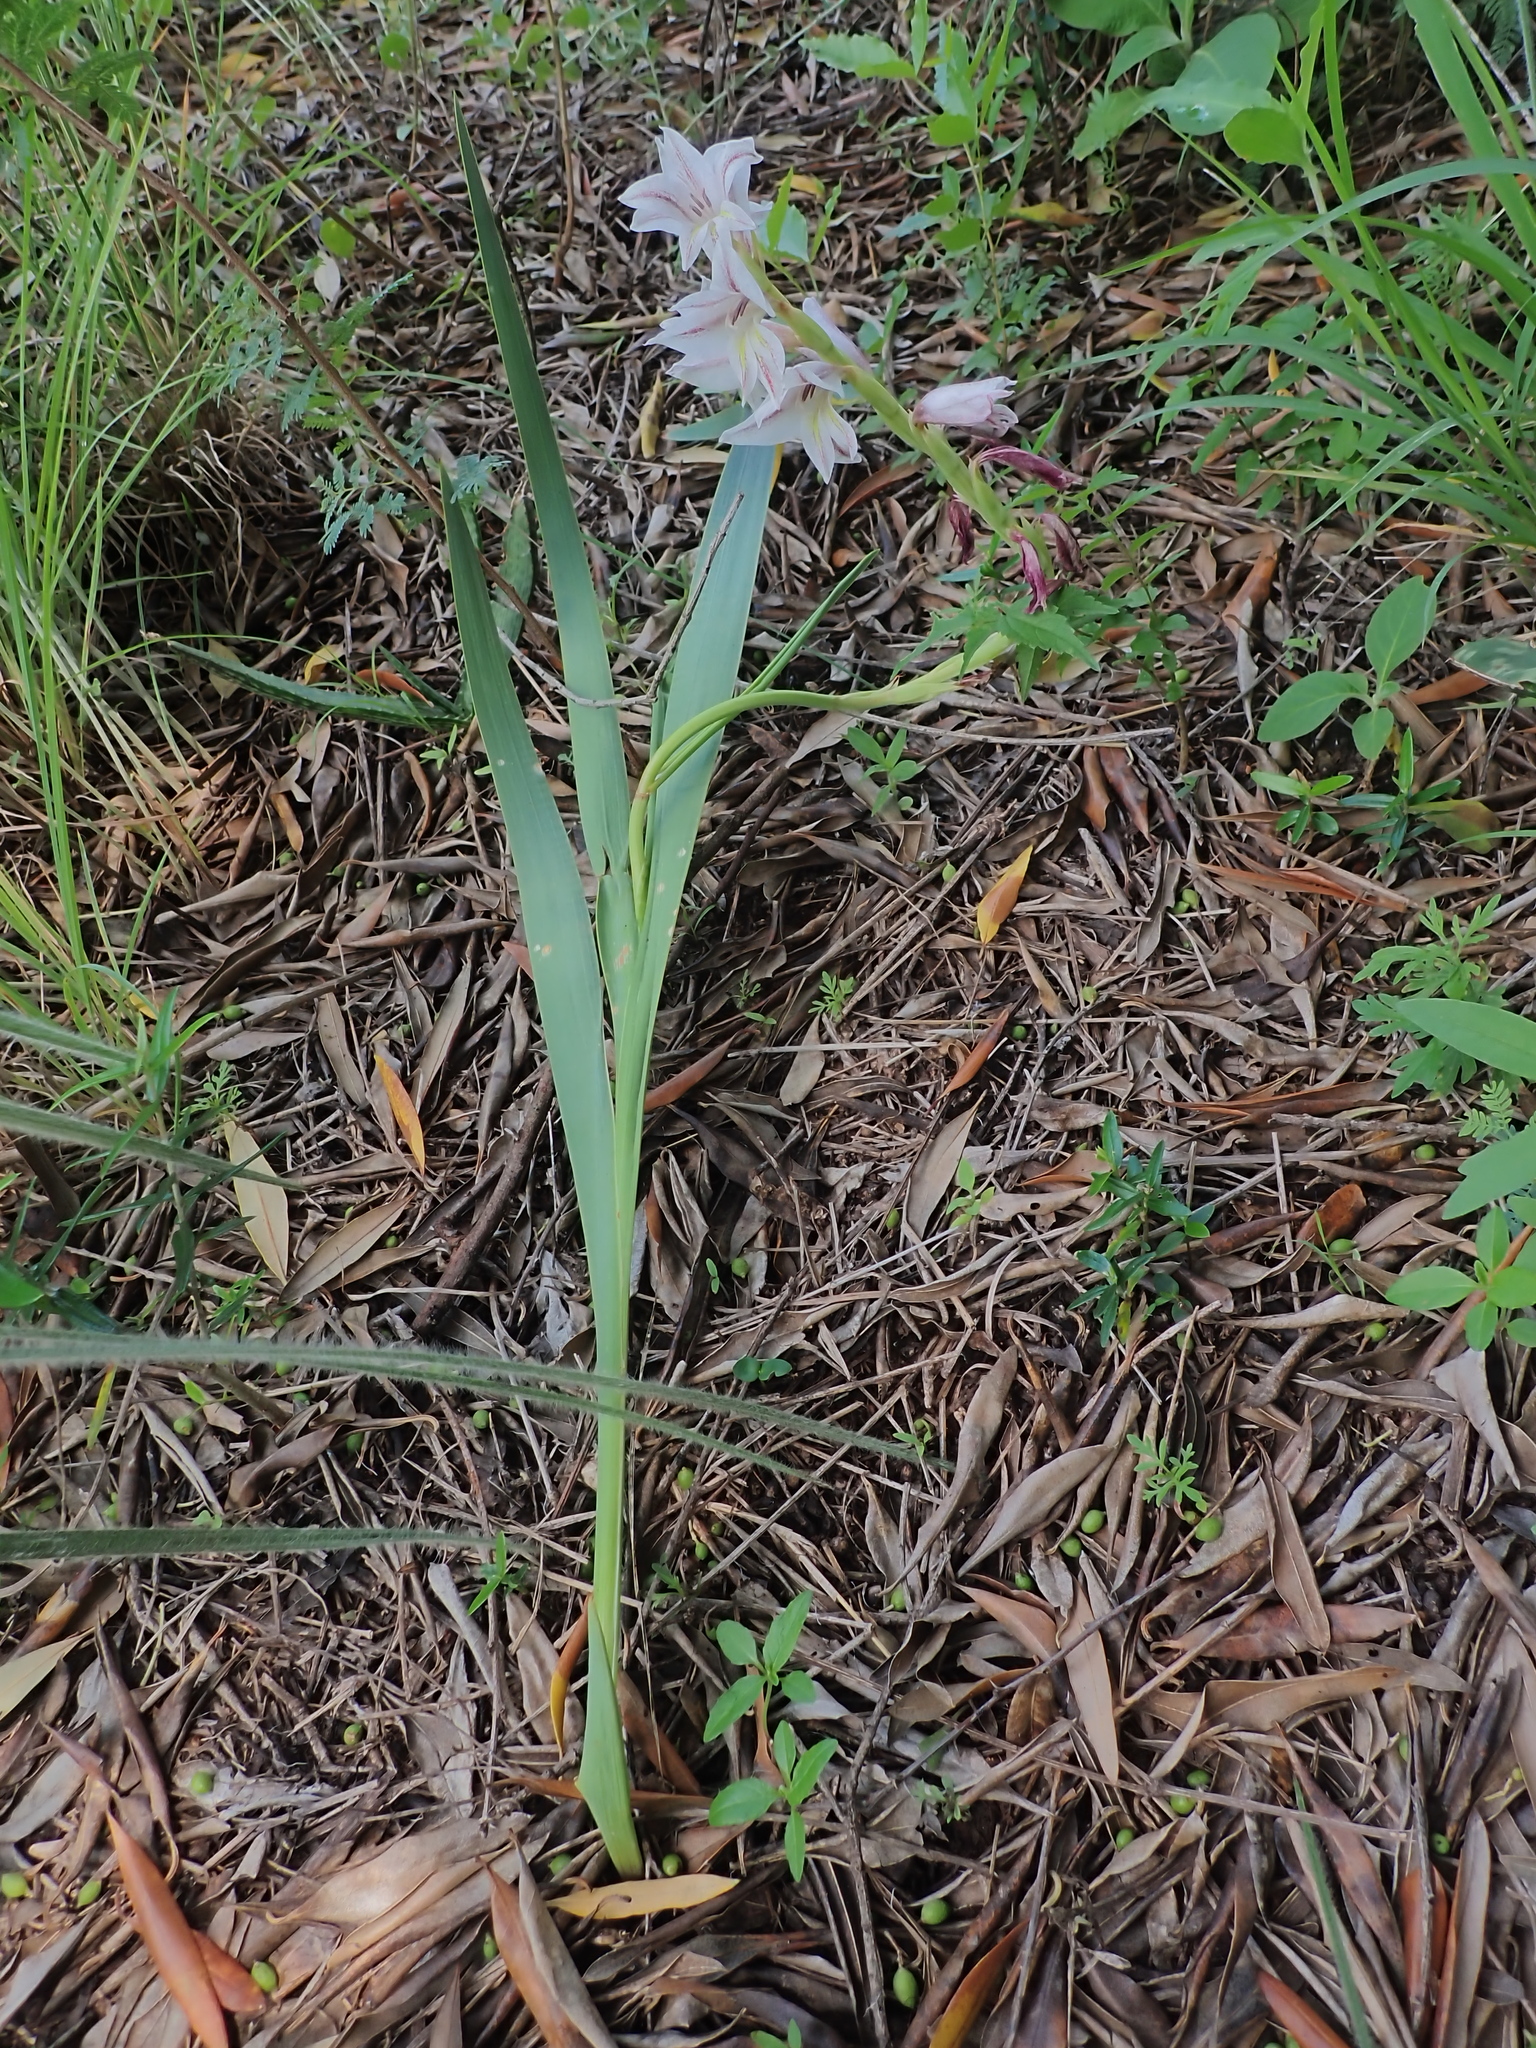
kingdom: Plantae
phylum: Tracheophyta
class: Liliopsida
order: Asparagales
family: Iridaceae
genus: Gladiolus
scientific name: Gladiolus elliotii
